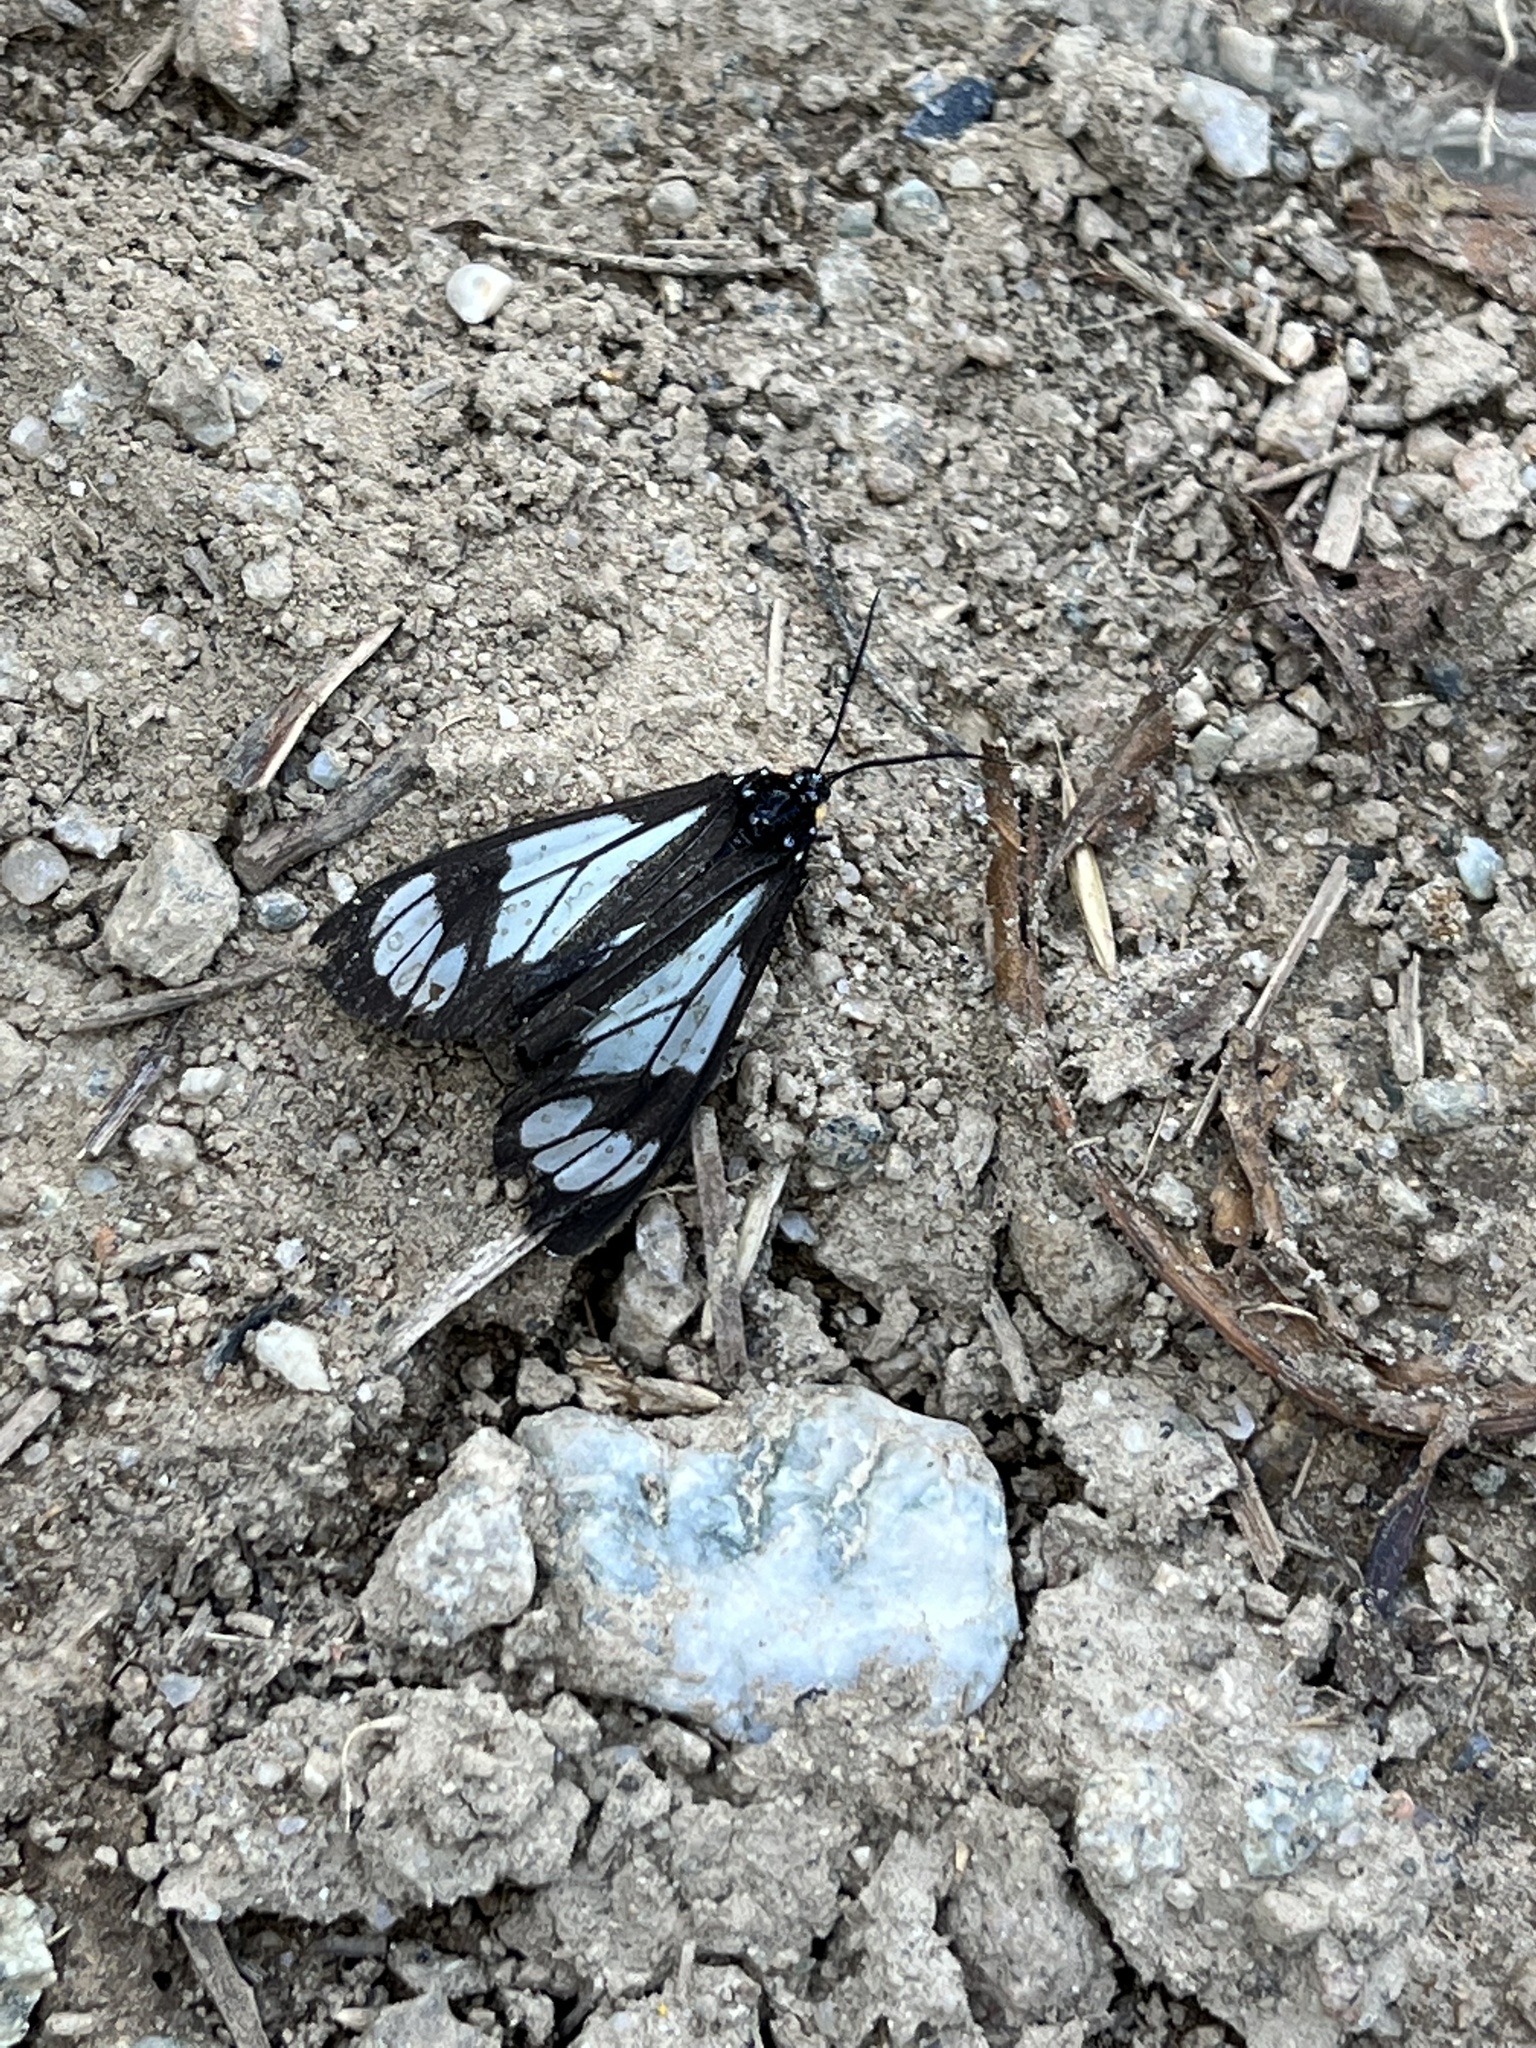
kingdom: Animalia
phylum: Arthropoda
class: Insecta
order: Lepidoptera
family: Erebidae
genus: Gnophaela
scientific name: Gnophaela vermiculata
